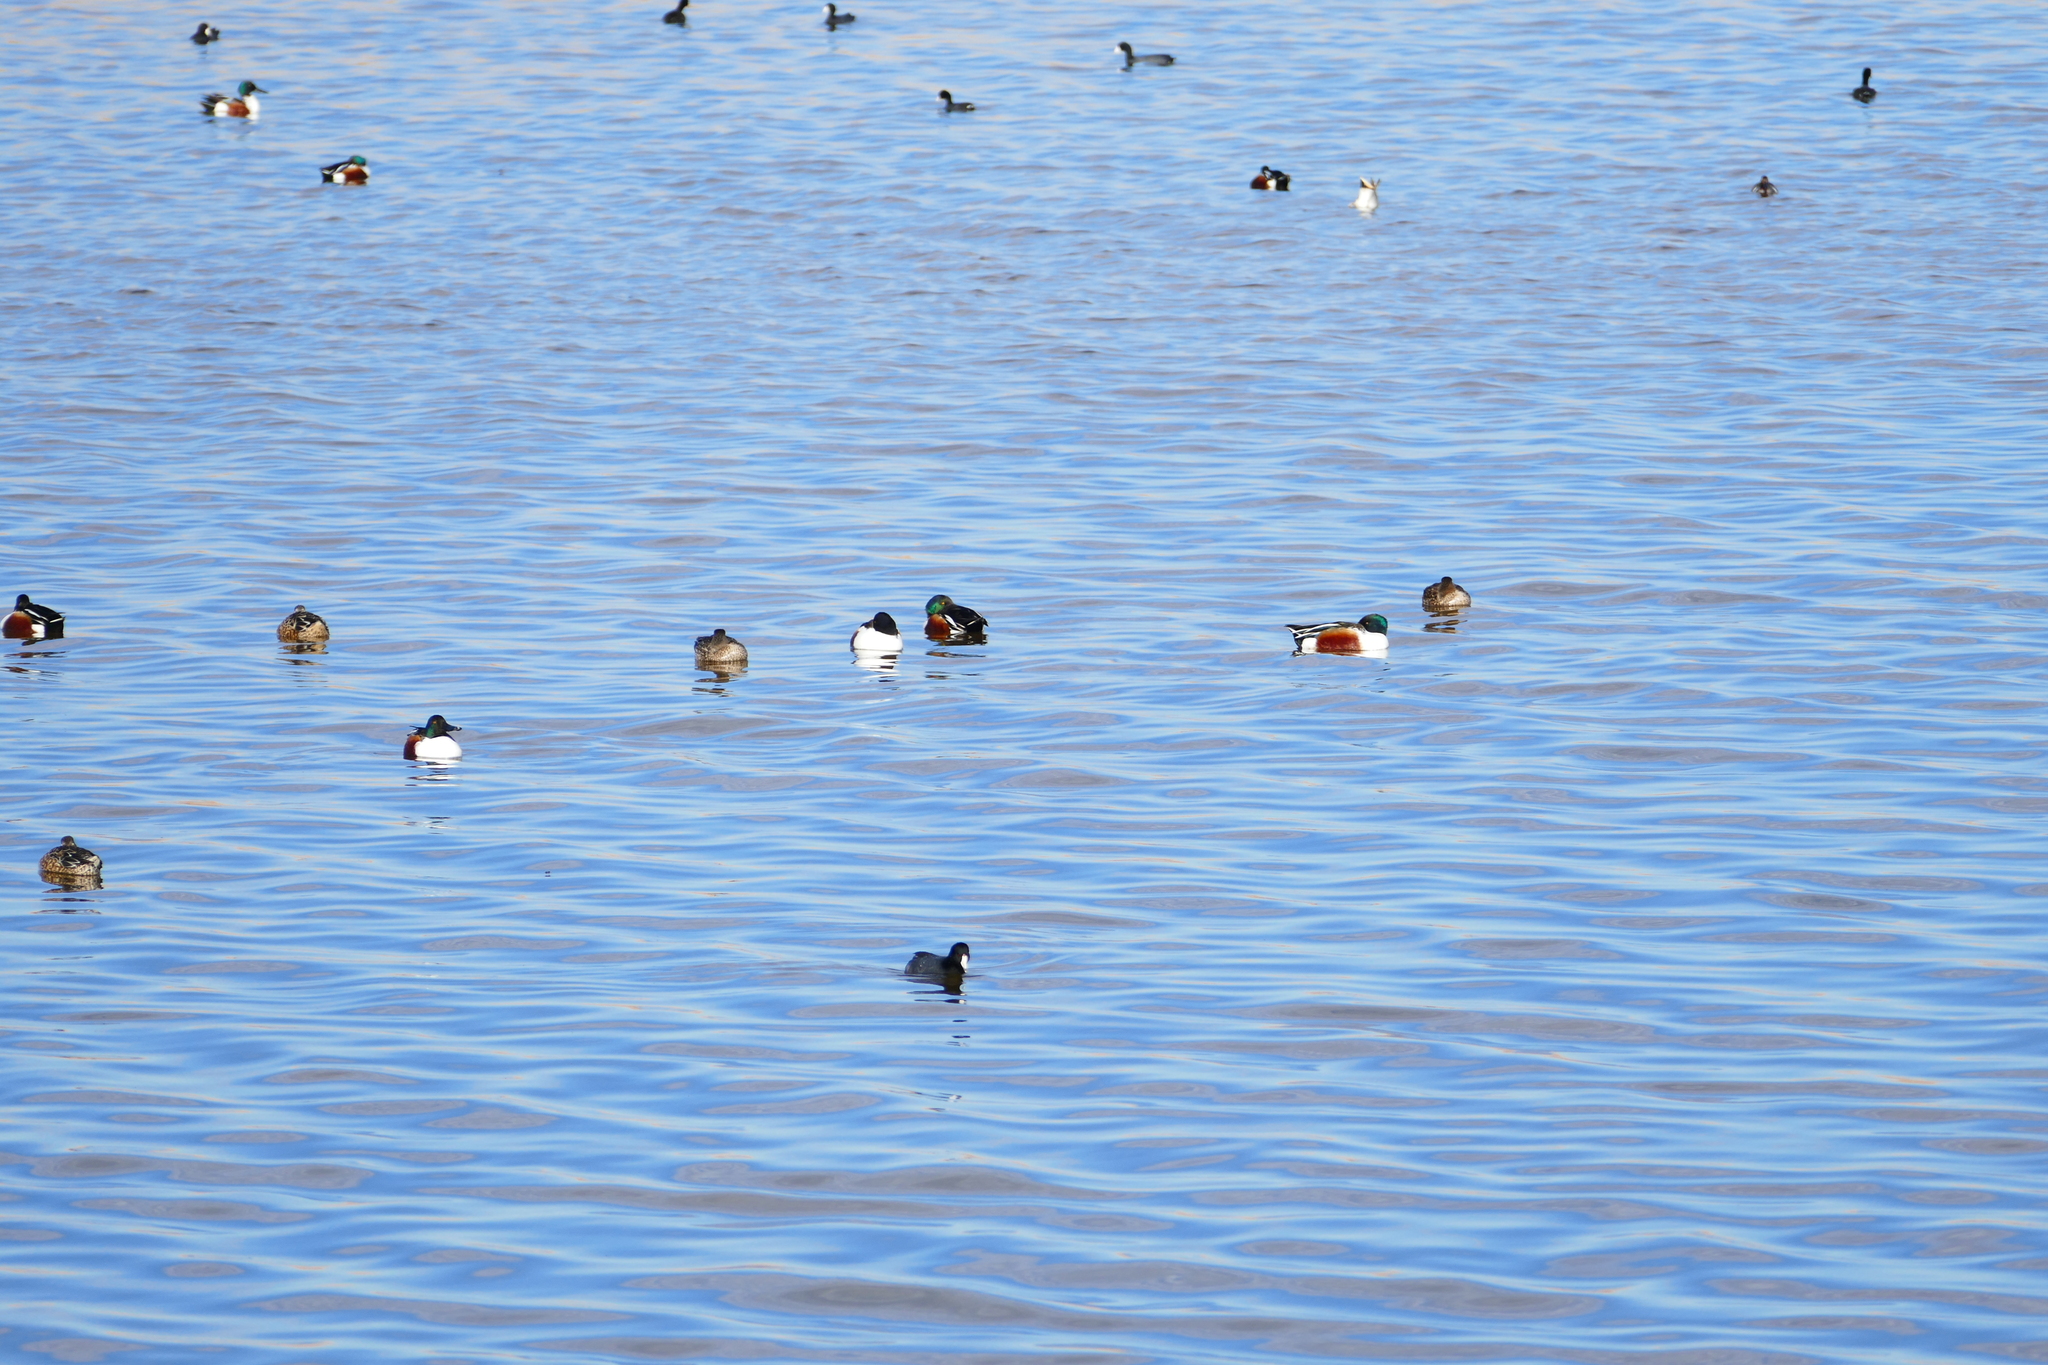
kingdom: Animalia
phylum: Chordata
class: Aves
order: Gruiformes
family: Rallidae
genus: Fulica
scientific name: Fulica americana
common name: American coot
